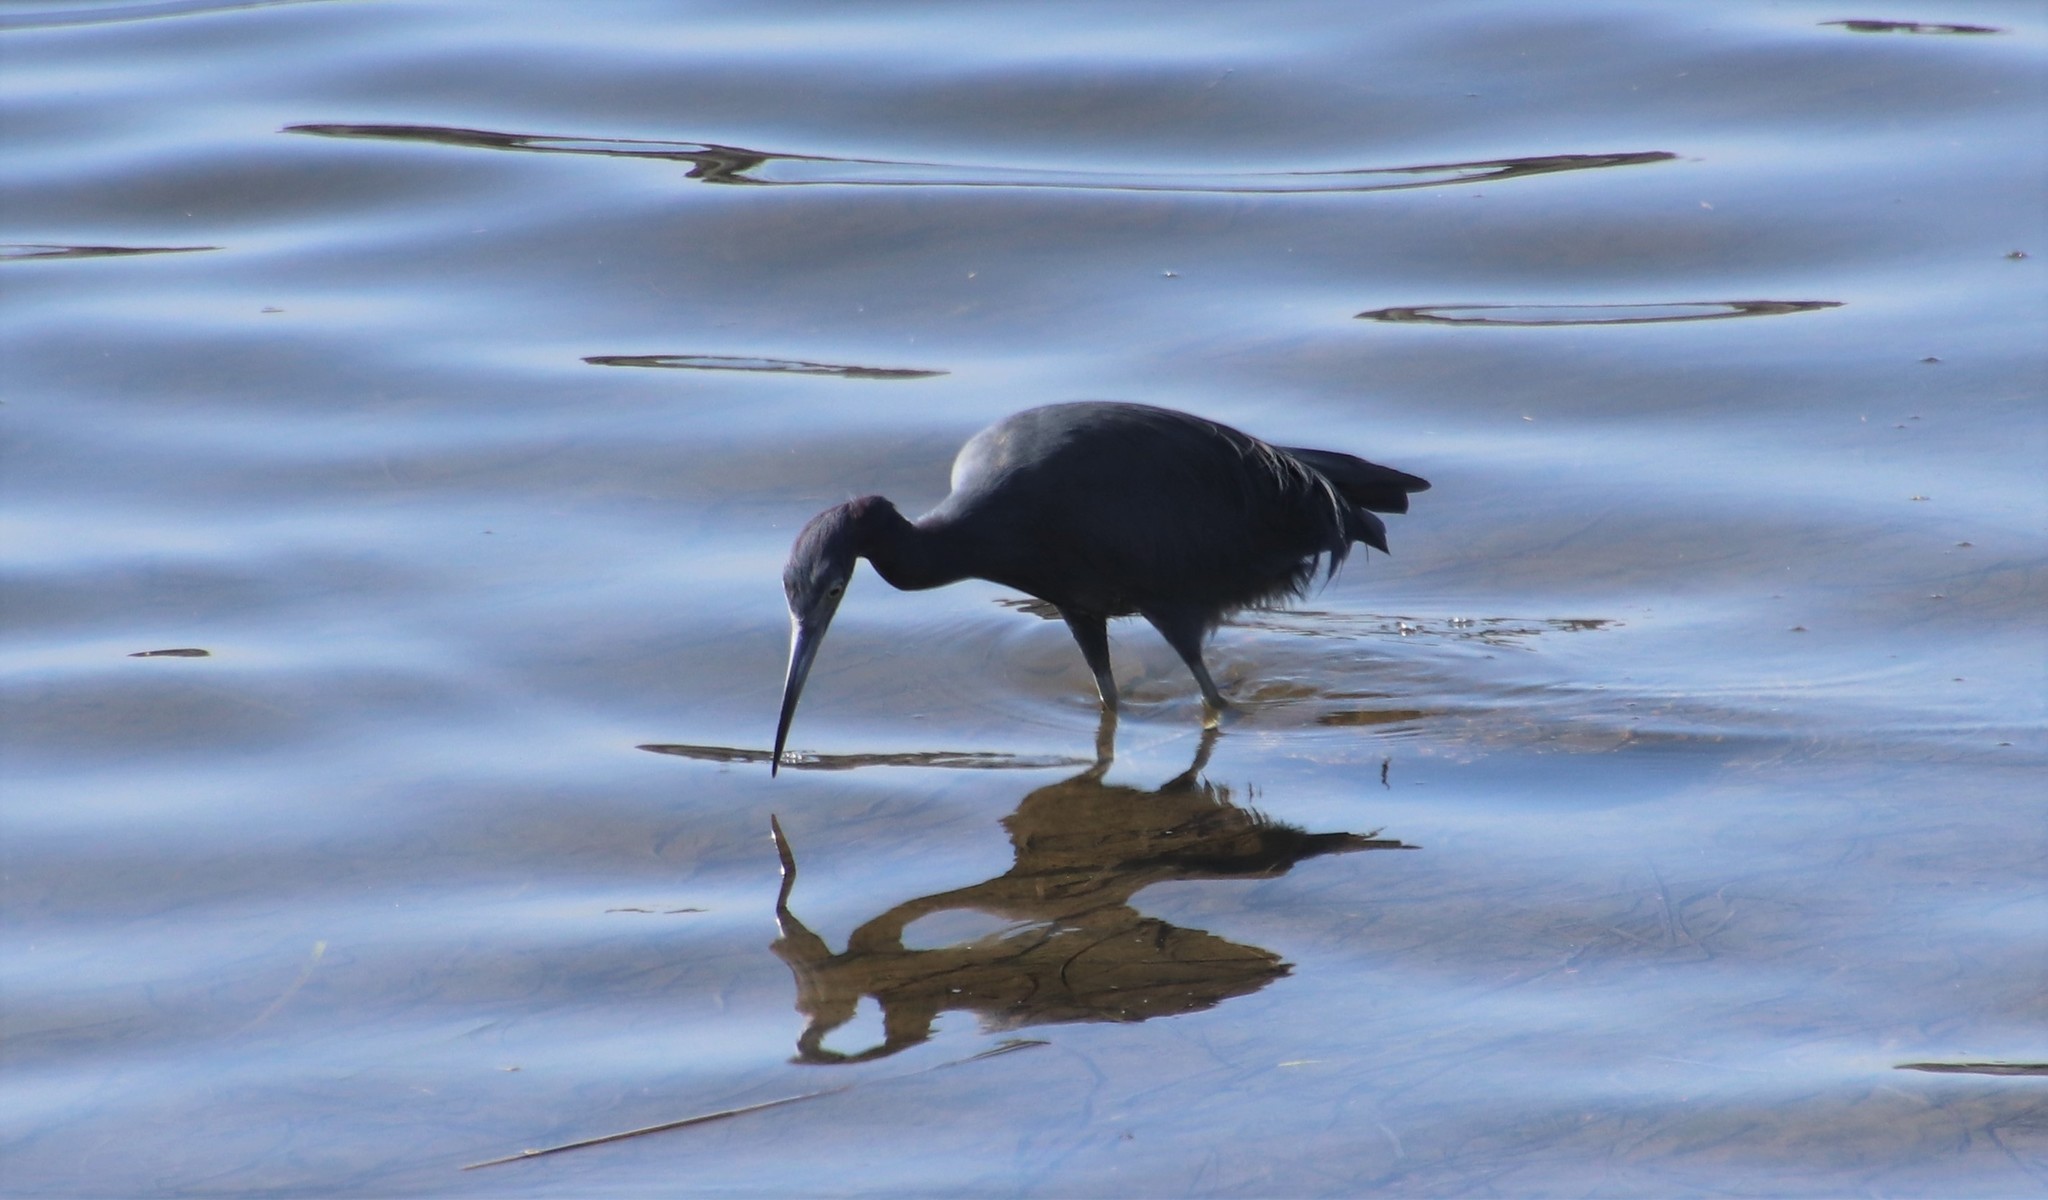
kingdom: Animalia
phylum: Chordata
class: Aves
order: Pelecaniformes
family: Ardeidae
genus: Egretta
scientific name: Egretta caerulea
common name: Little blue heron
